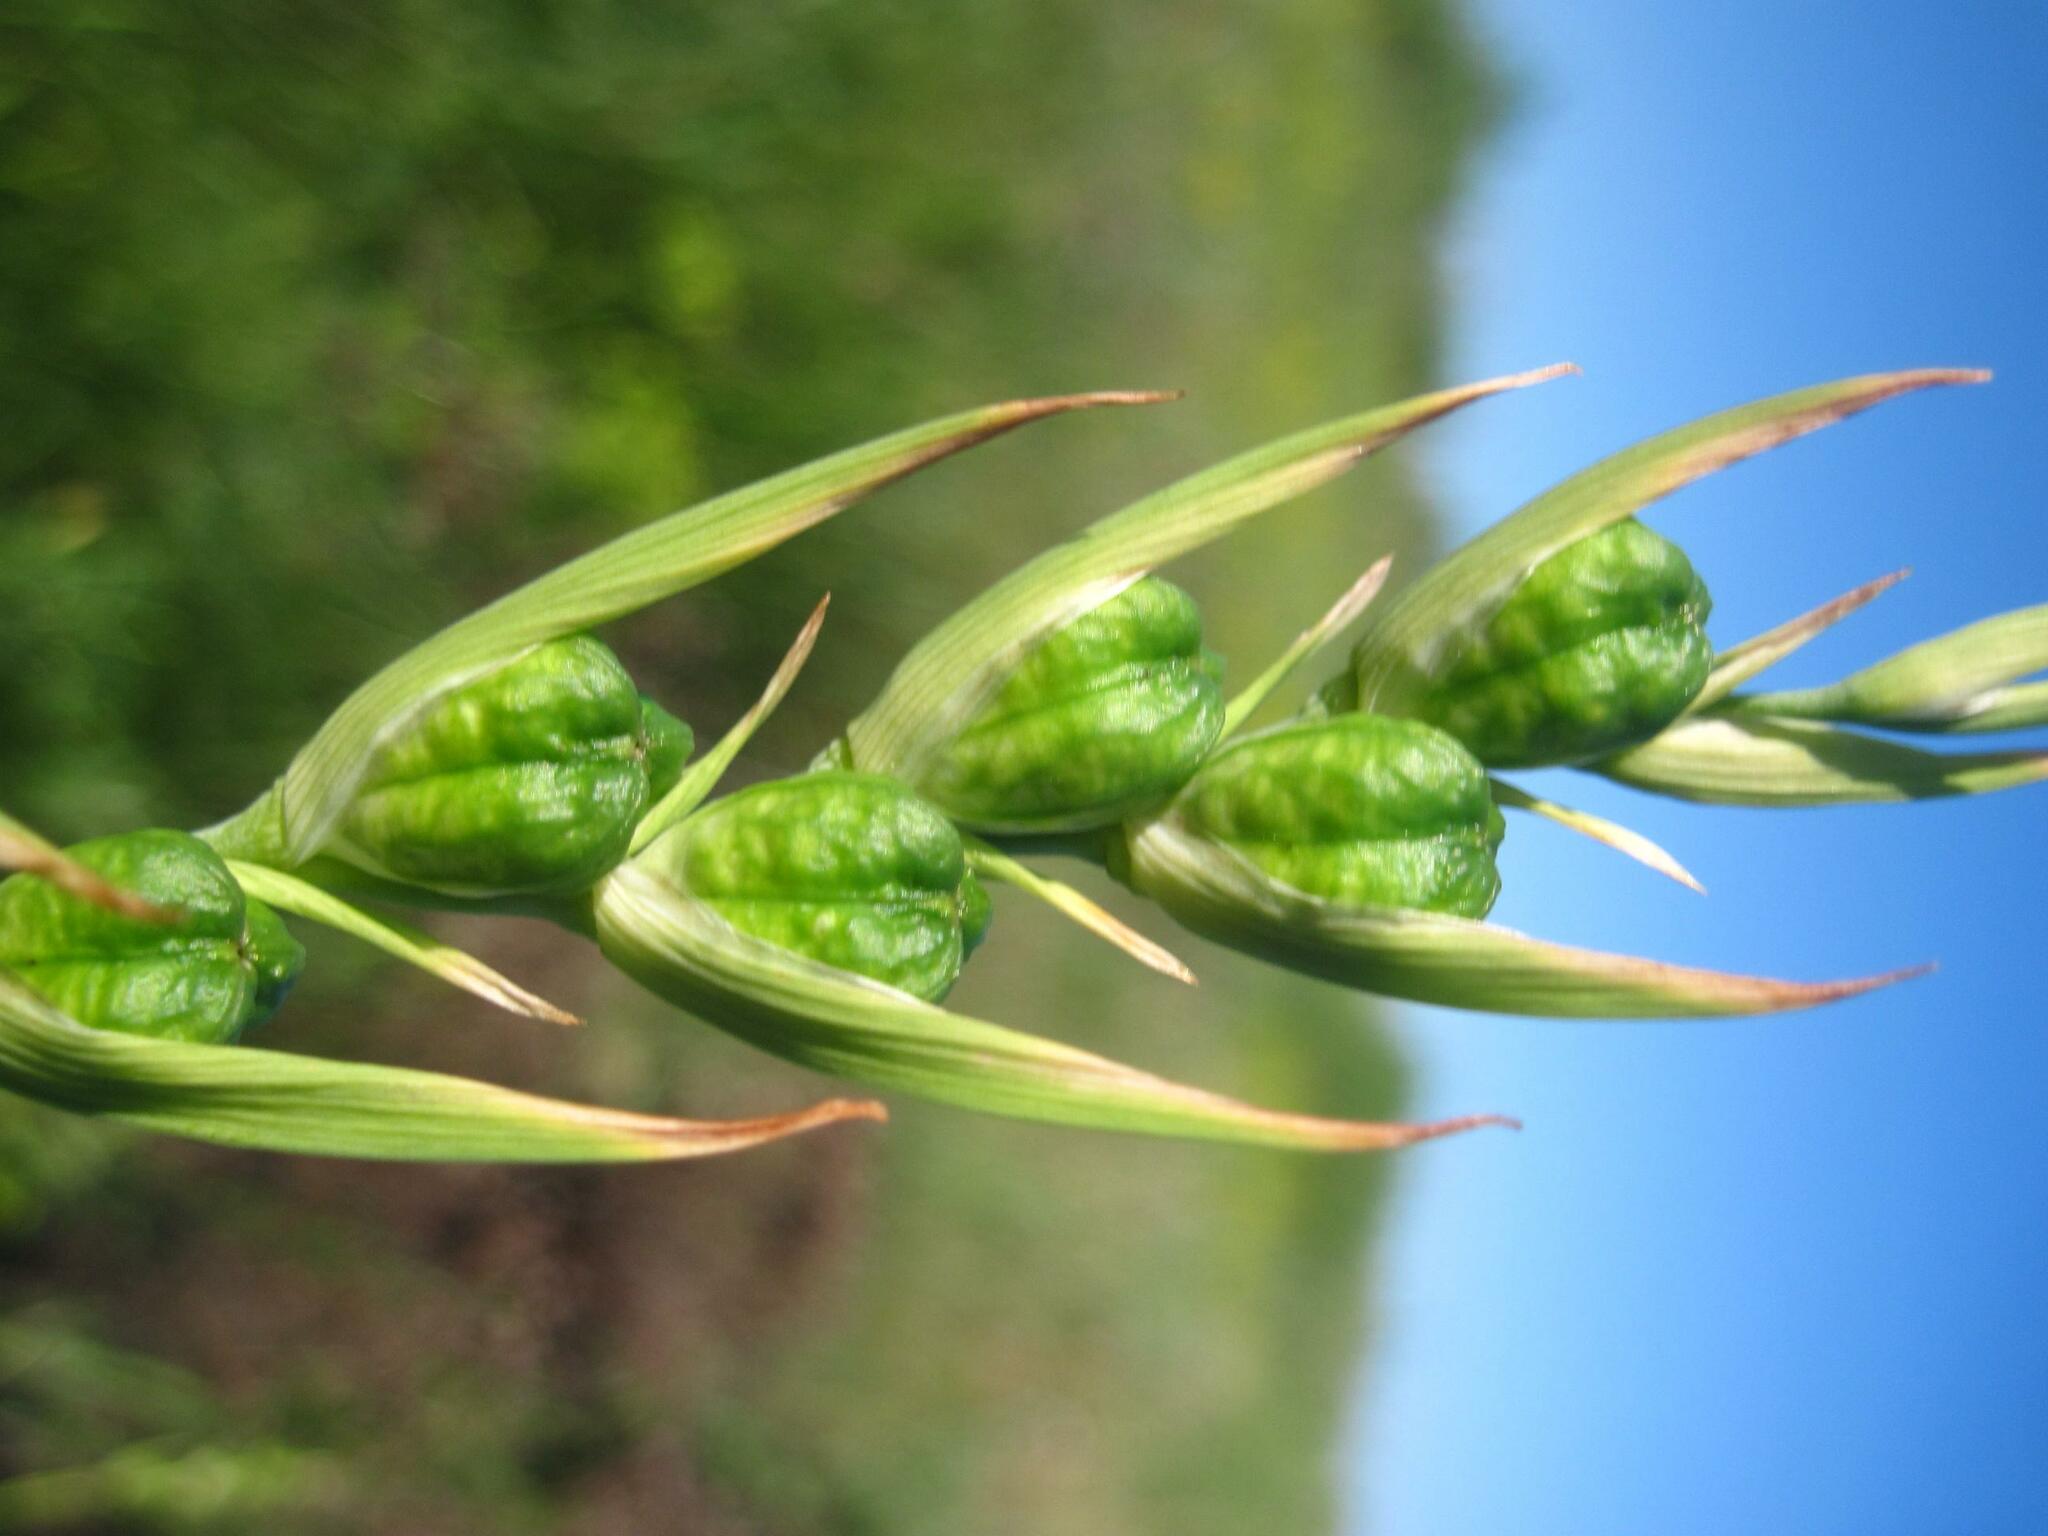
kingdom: Plantae
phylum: Tracheophyta
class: Liliopsida
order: Asparagales
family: Iridaceae
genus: Gladiolus
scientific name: Gladiolus tenuis
